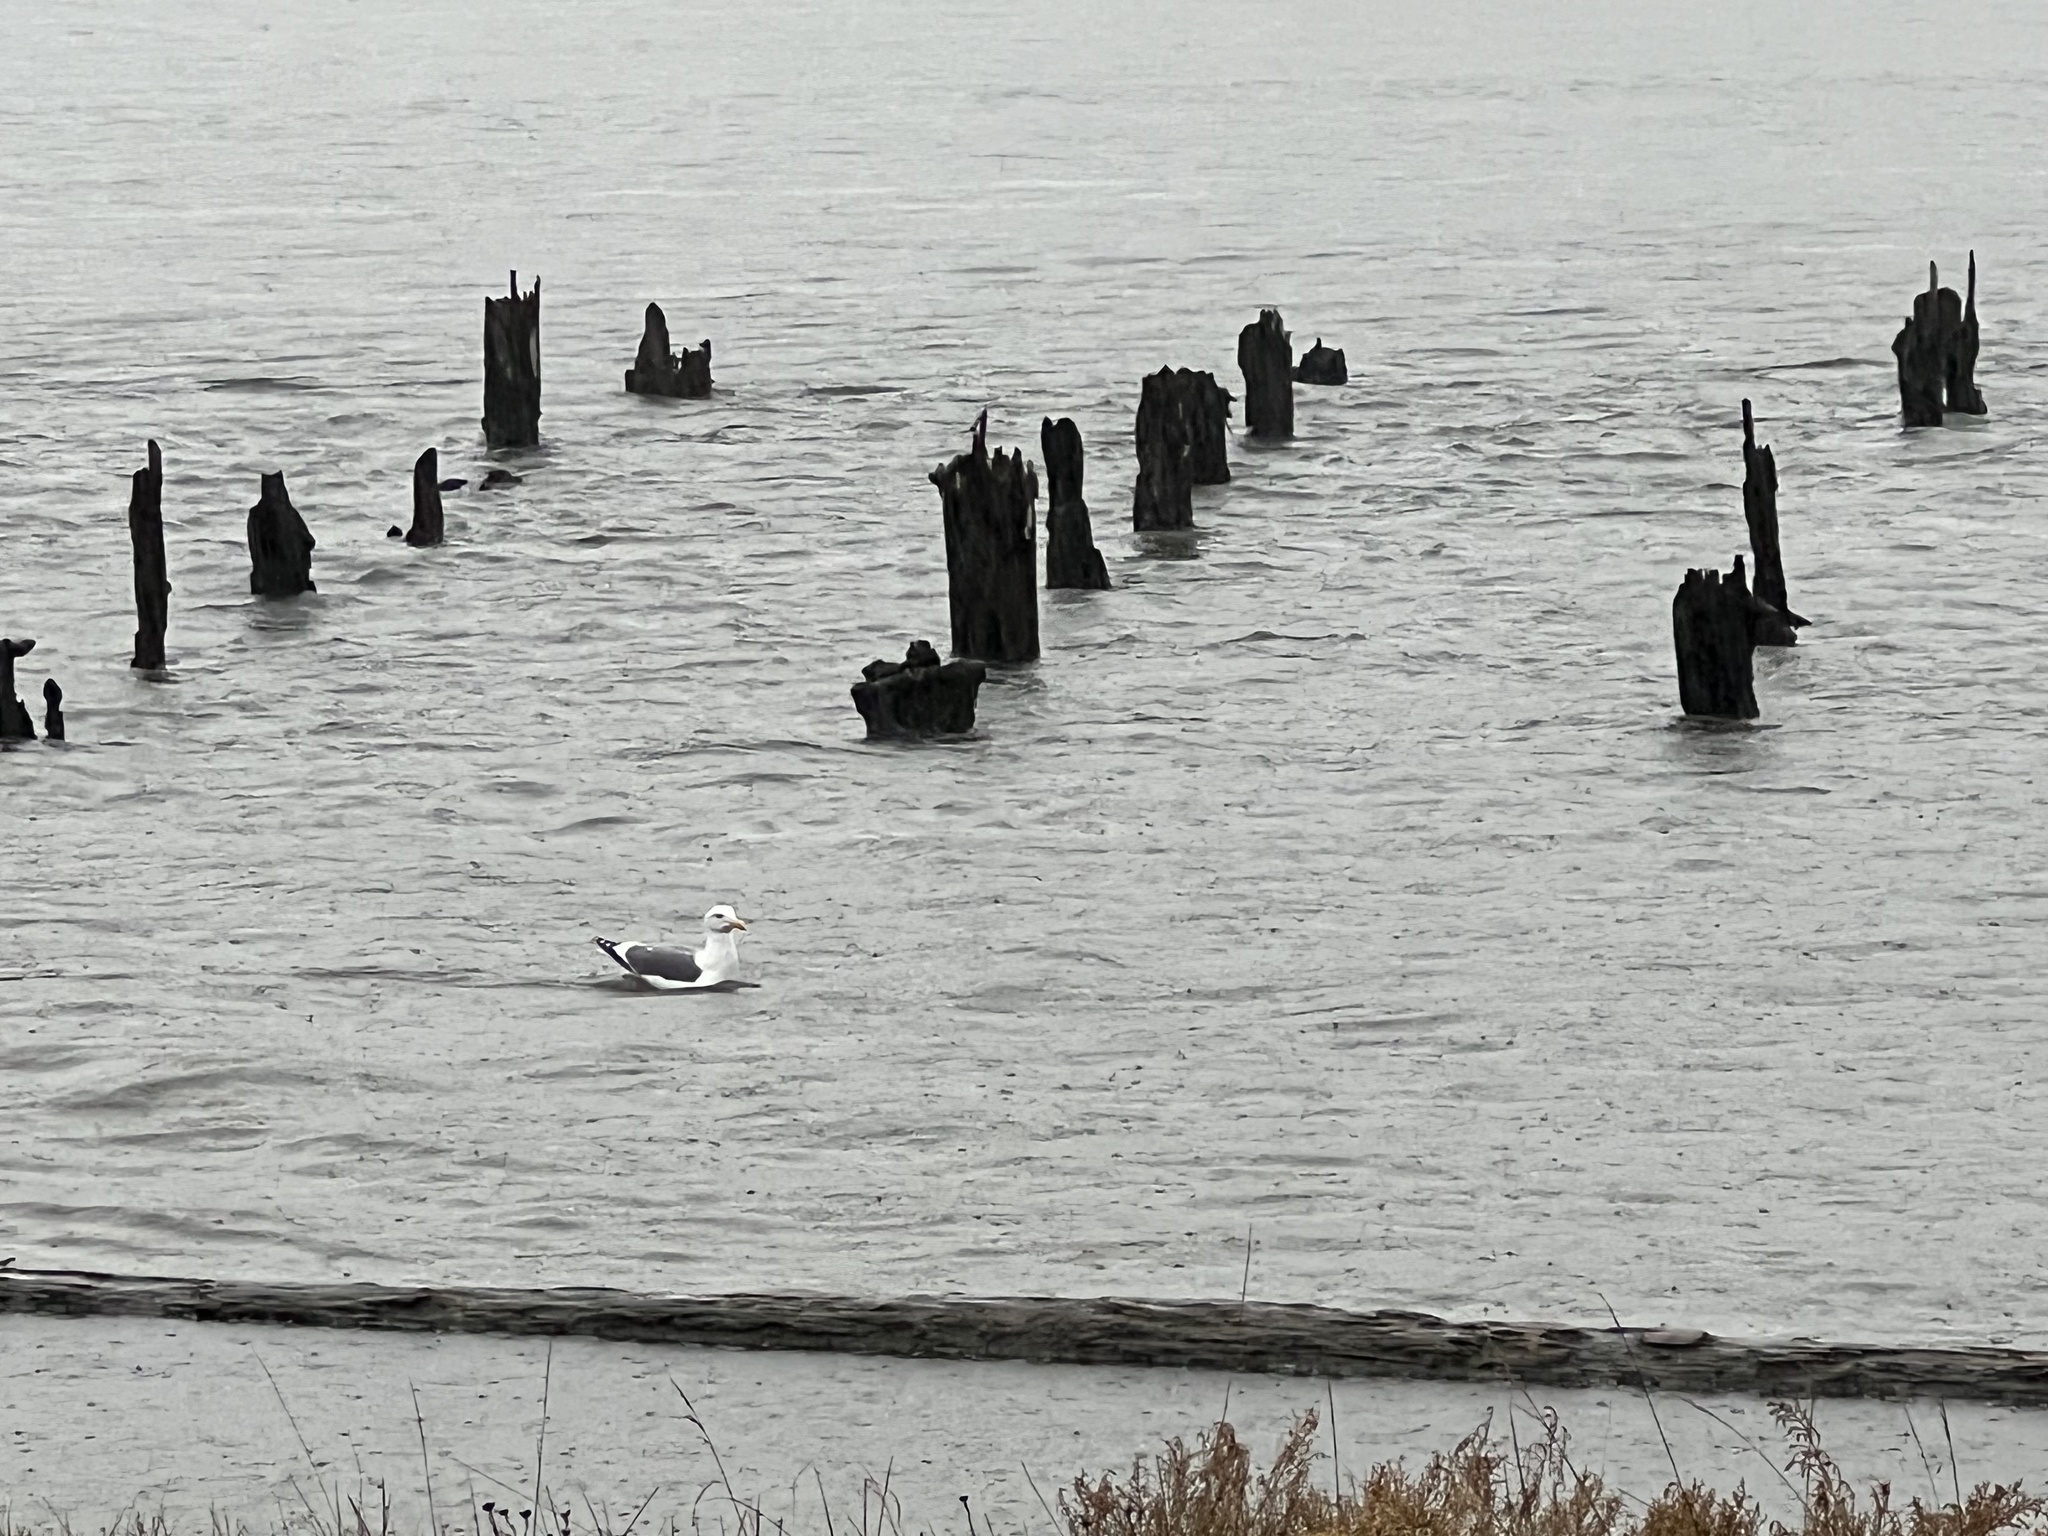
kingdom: Animalia
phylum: Chordata
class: Aves
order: Charadriiformes
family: Laridae
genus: Larus
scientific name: Larus occidentalis
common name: Western gull
